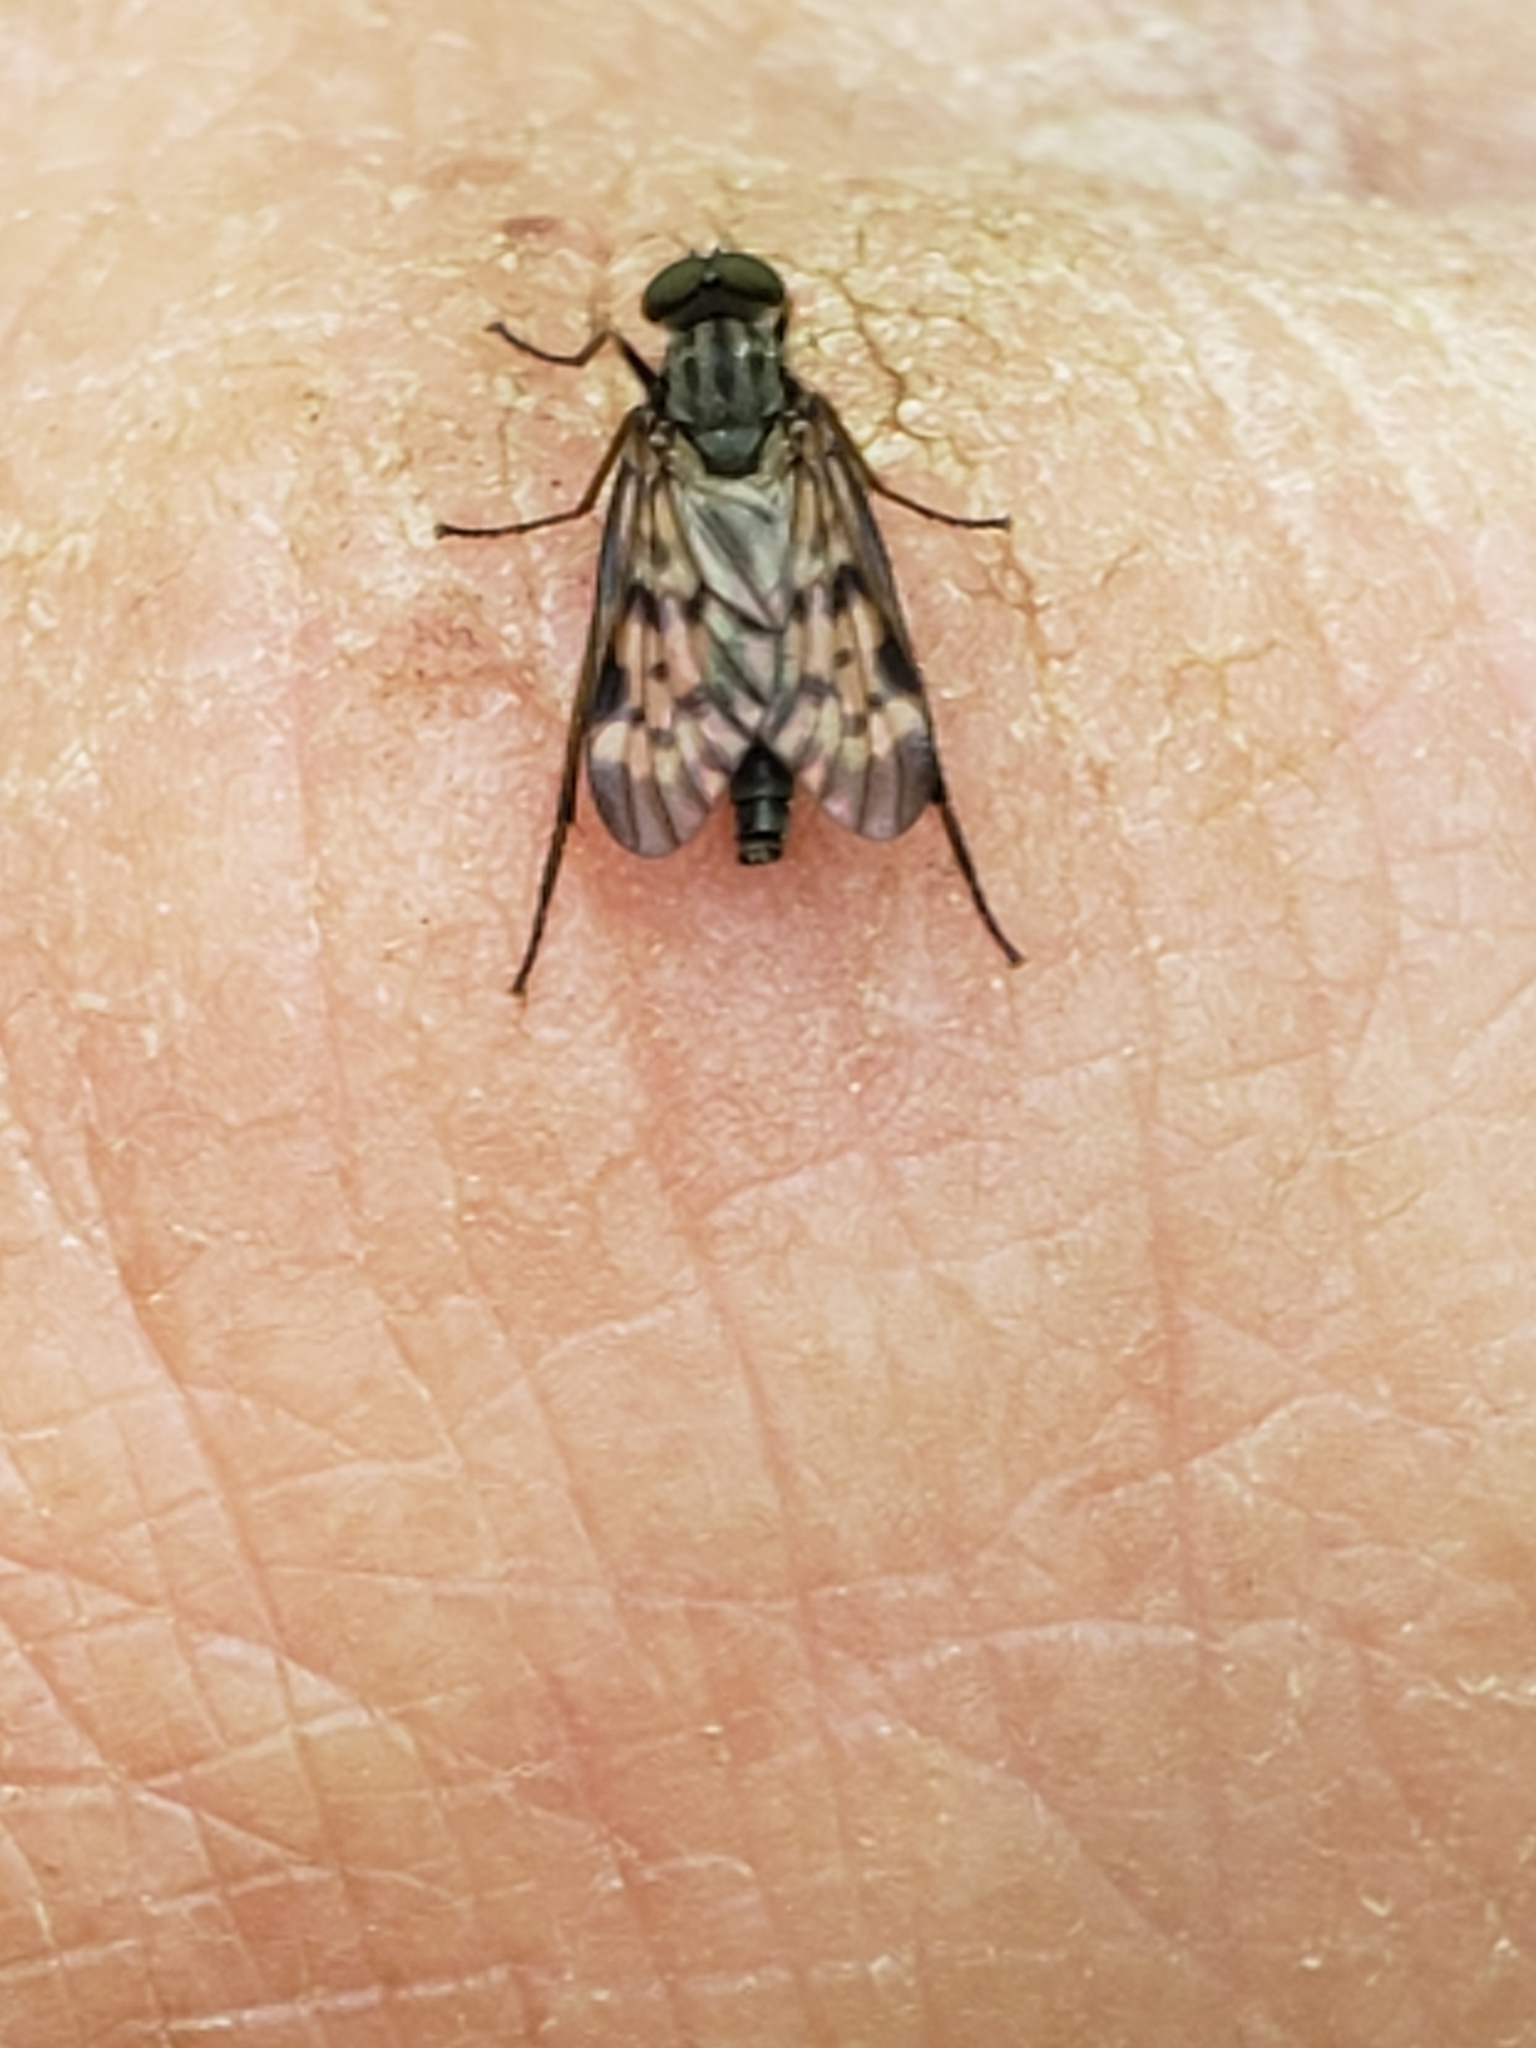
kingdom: Animalia
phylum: Arthropoda
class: Insecta
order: Diptera
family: Rhagionidae
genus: Rhagio
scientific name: Rhagio punctipennis
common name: Lesser variegated snipe fly
